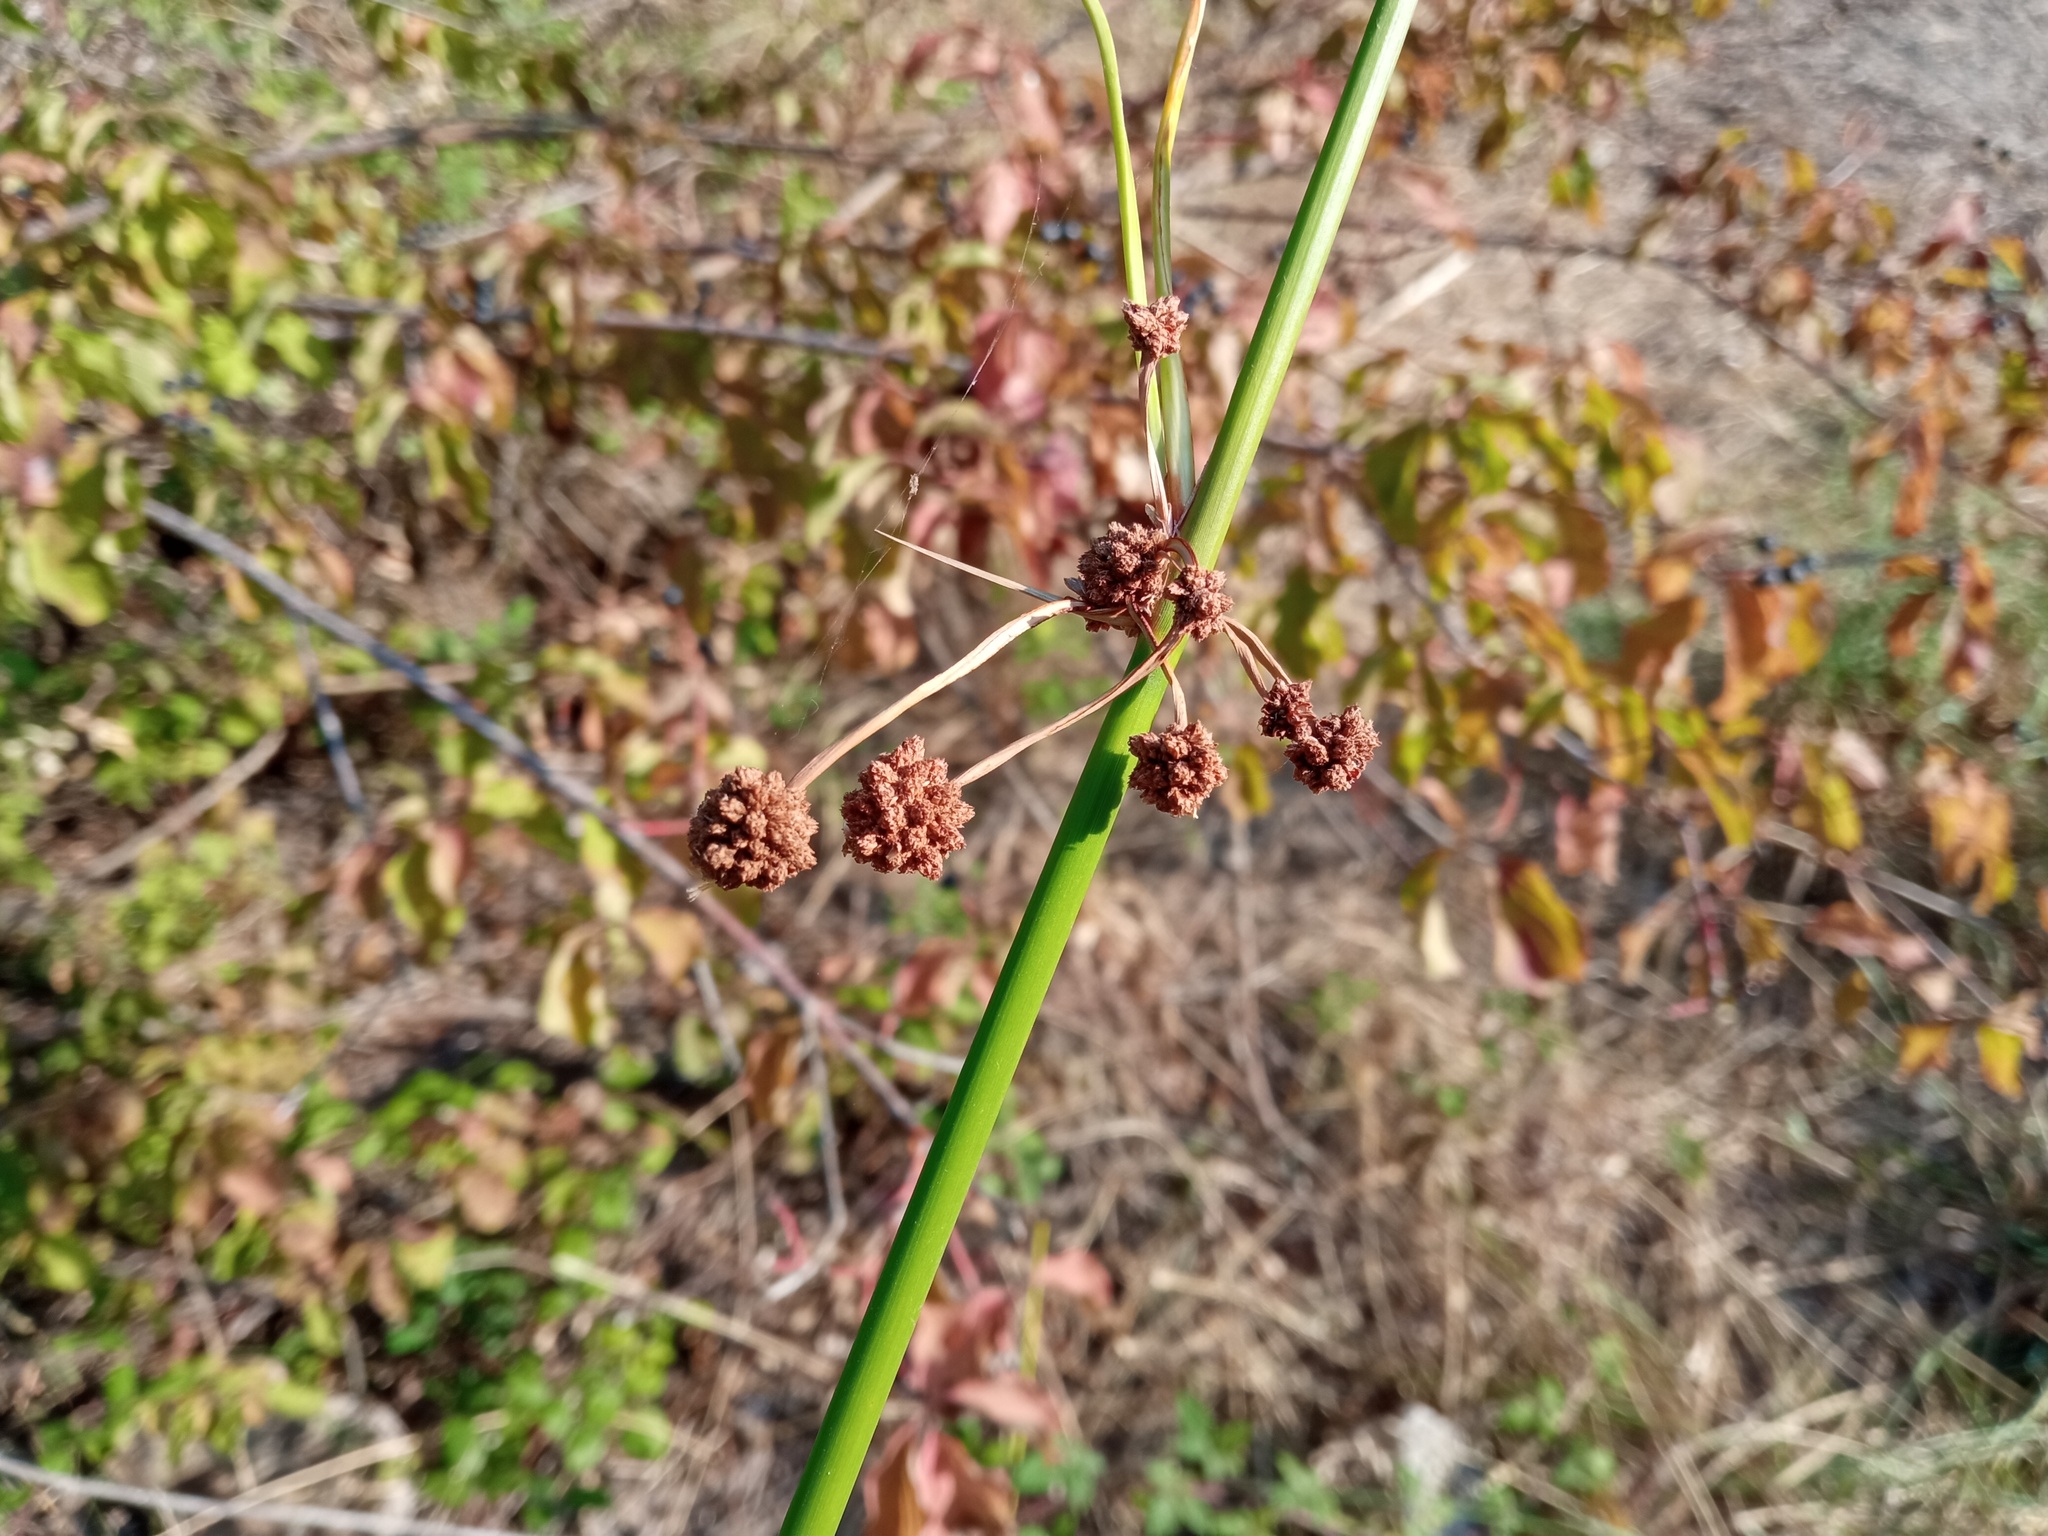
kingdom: Plantae
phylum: Tracheophyta
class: Liliopsida
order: Poales
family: Cyperaceae
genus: Scirpoides
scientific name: Scirpoides holoschoenus
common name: Round-headed club-rush
